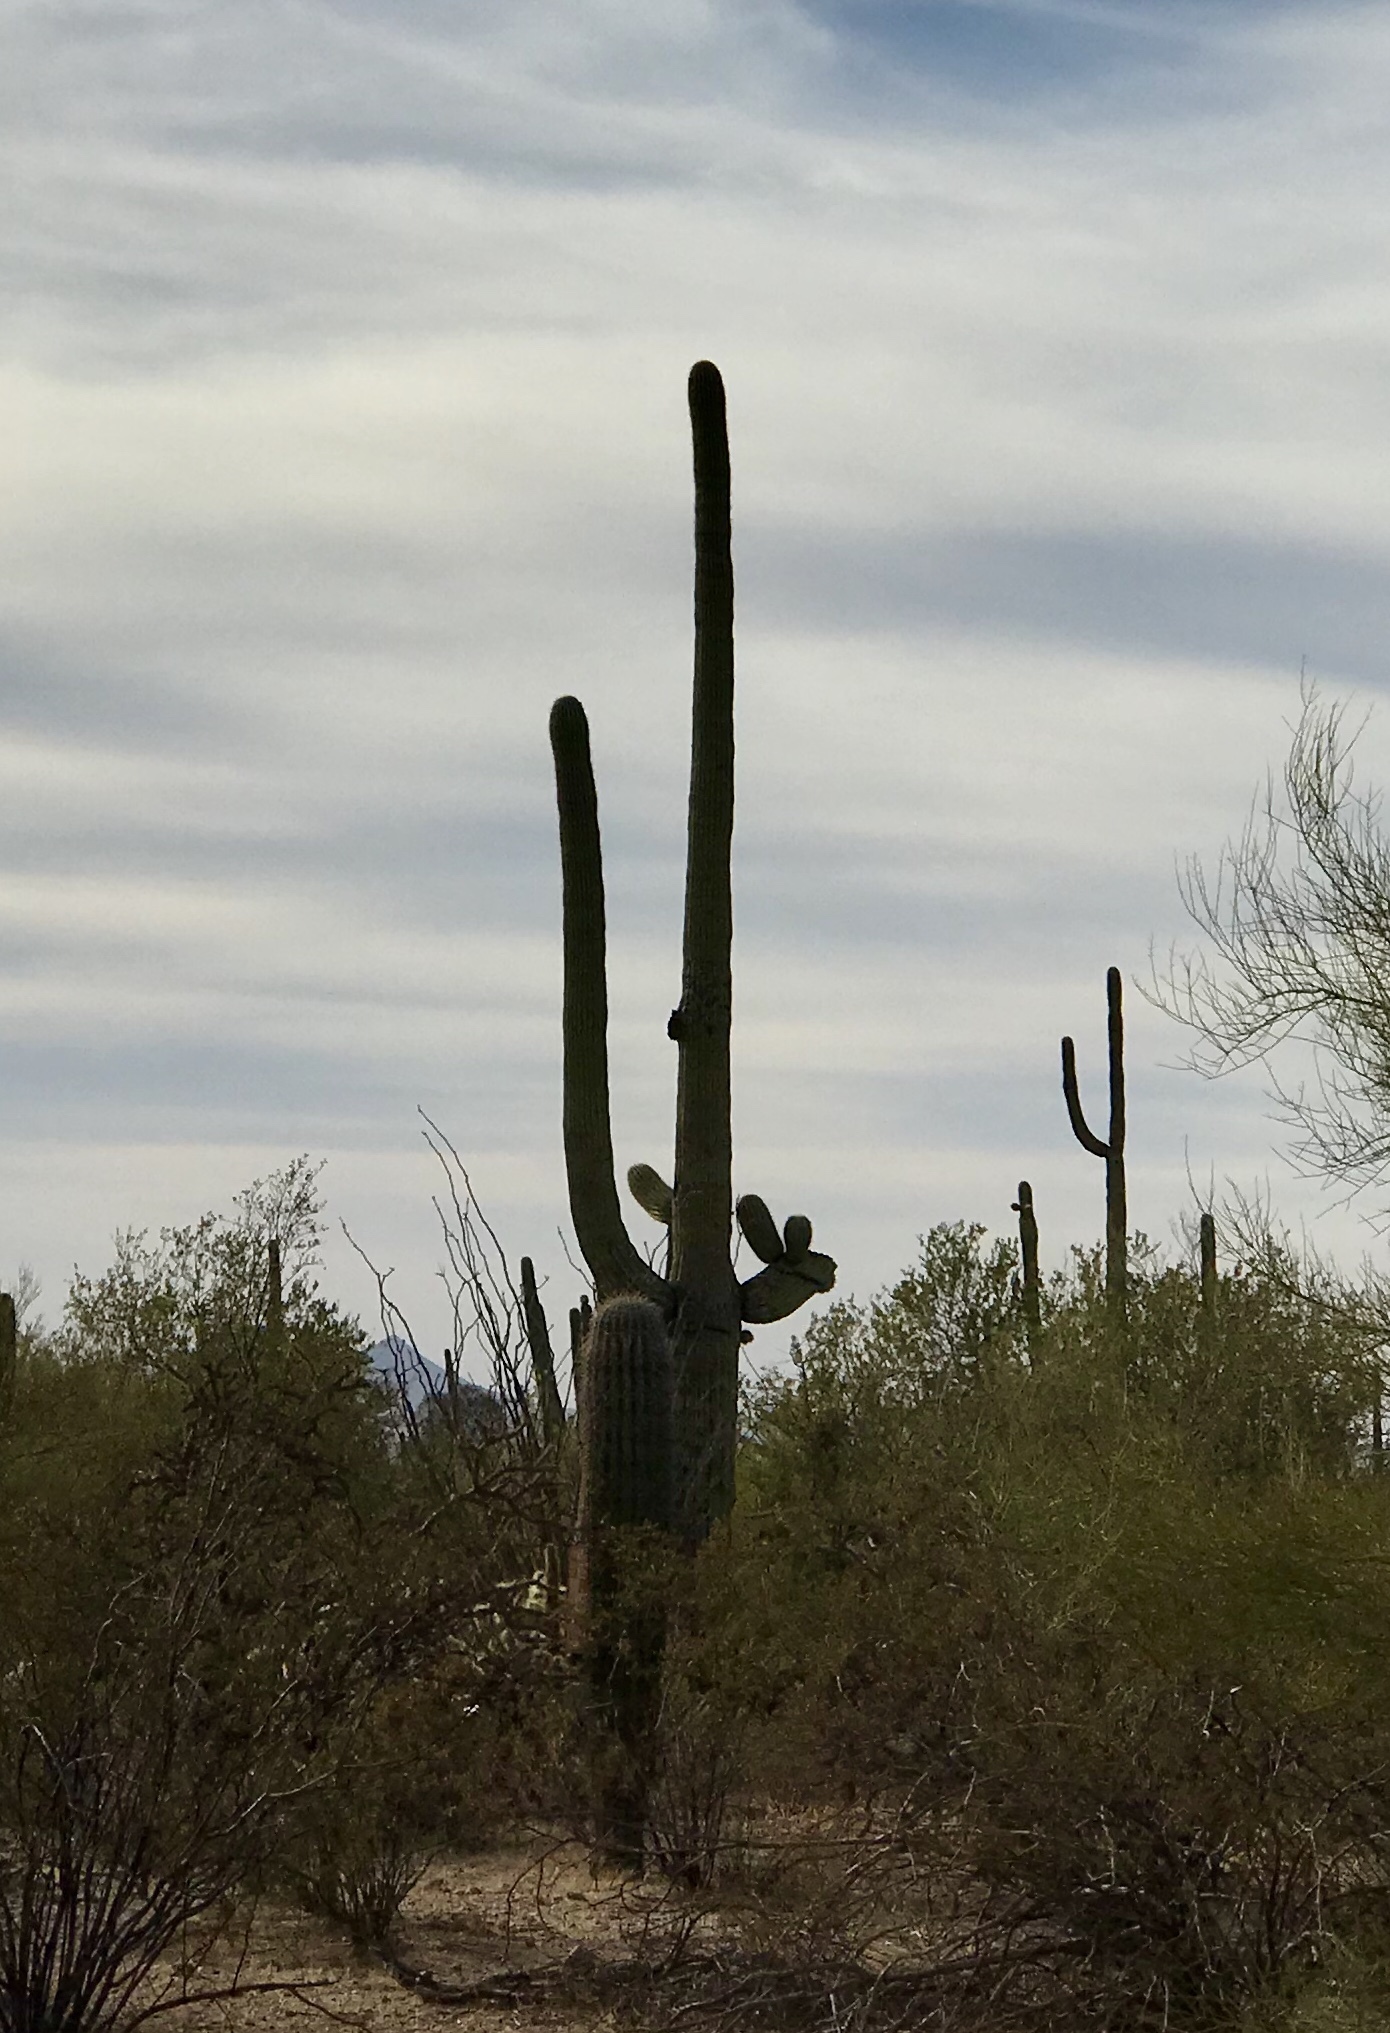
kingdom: Plantae
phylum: Tracheophyta
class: Magnoliopsida
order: Caryophyllales
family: Cactaceae
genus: Carnegiea
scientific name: Carnegiea gigantea
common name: Saguaro
